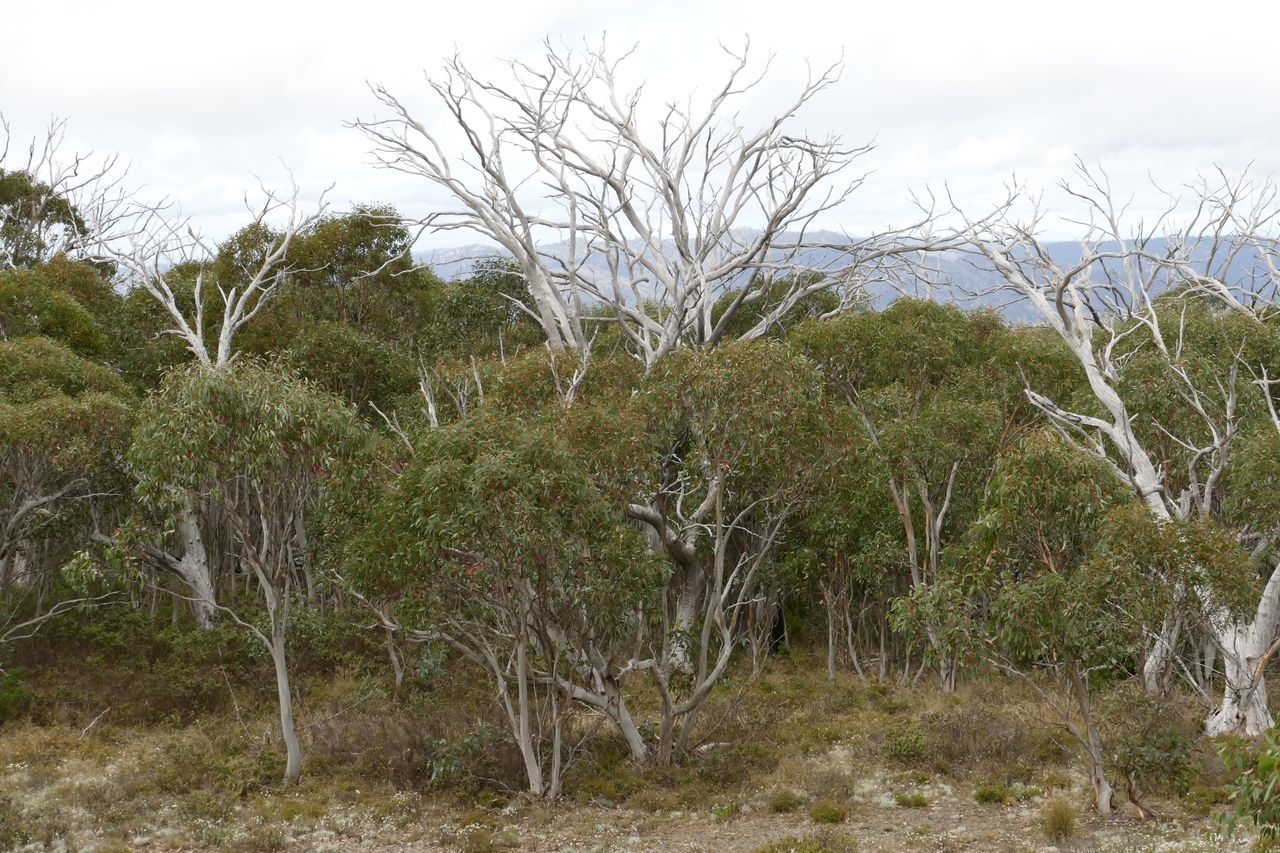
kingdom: Plantae
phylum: Tracheophyta
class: Magnoliopsida
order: Myrtales
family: Myrtaceae
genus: Eucalyptus
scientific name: Eucalyptus pauciflora
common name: Snow gum
